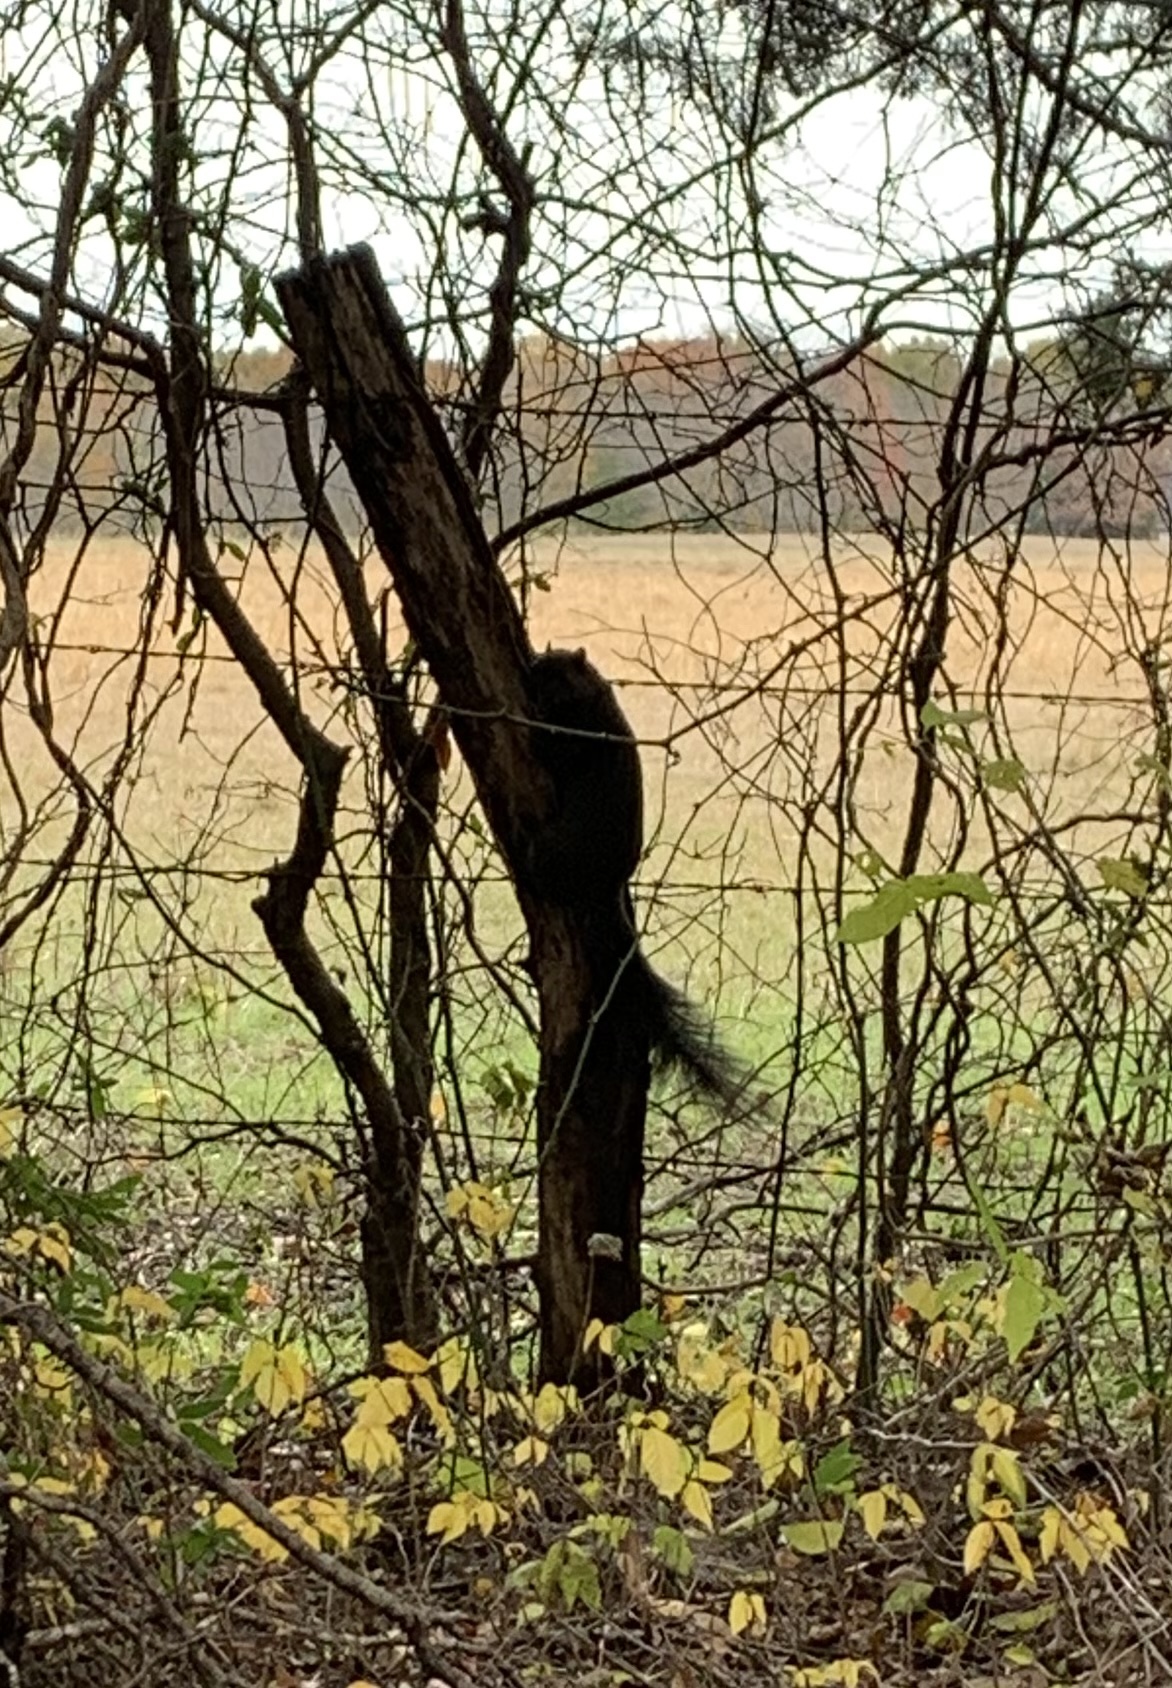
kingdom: Animalia
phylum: Chordata
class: Mammalia
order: Rodentia
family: Sciuridae
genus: Sciurus
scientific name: Sciurus niger
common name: Fox squirrel
